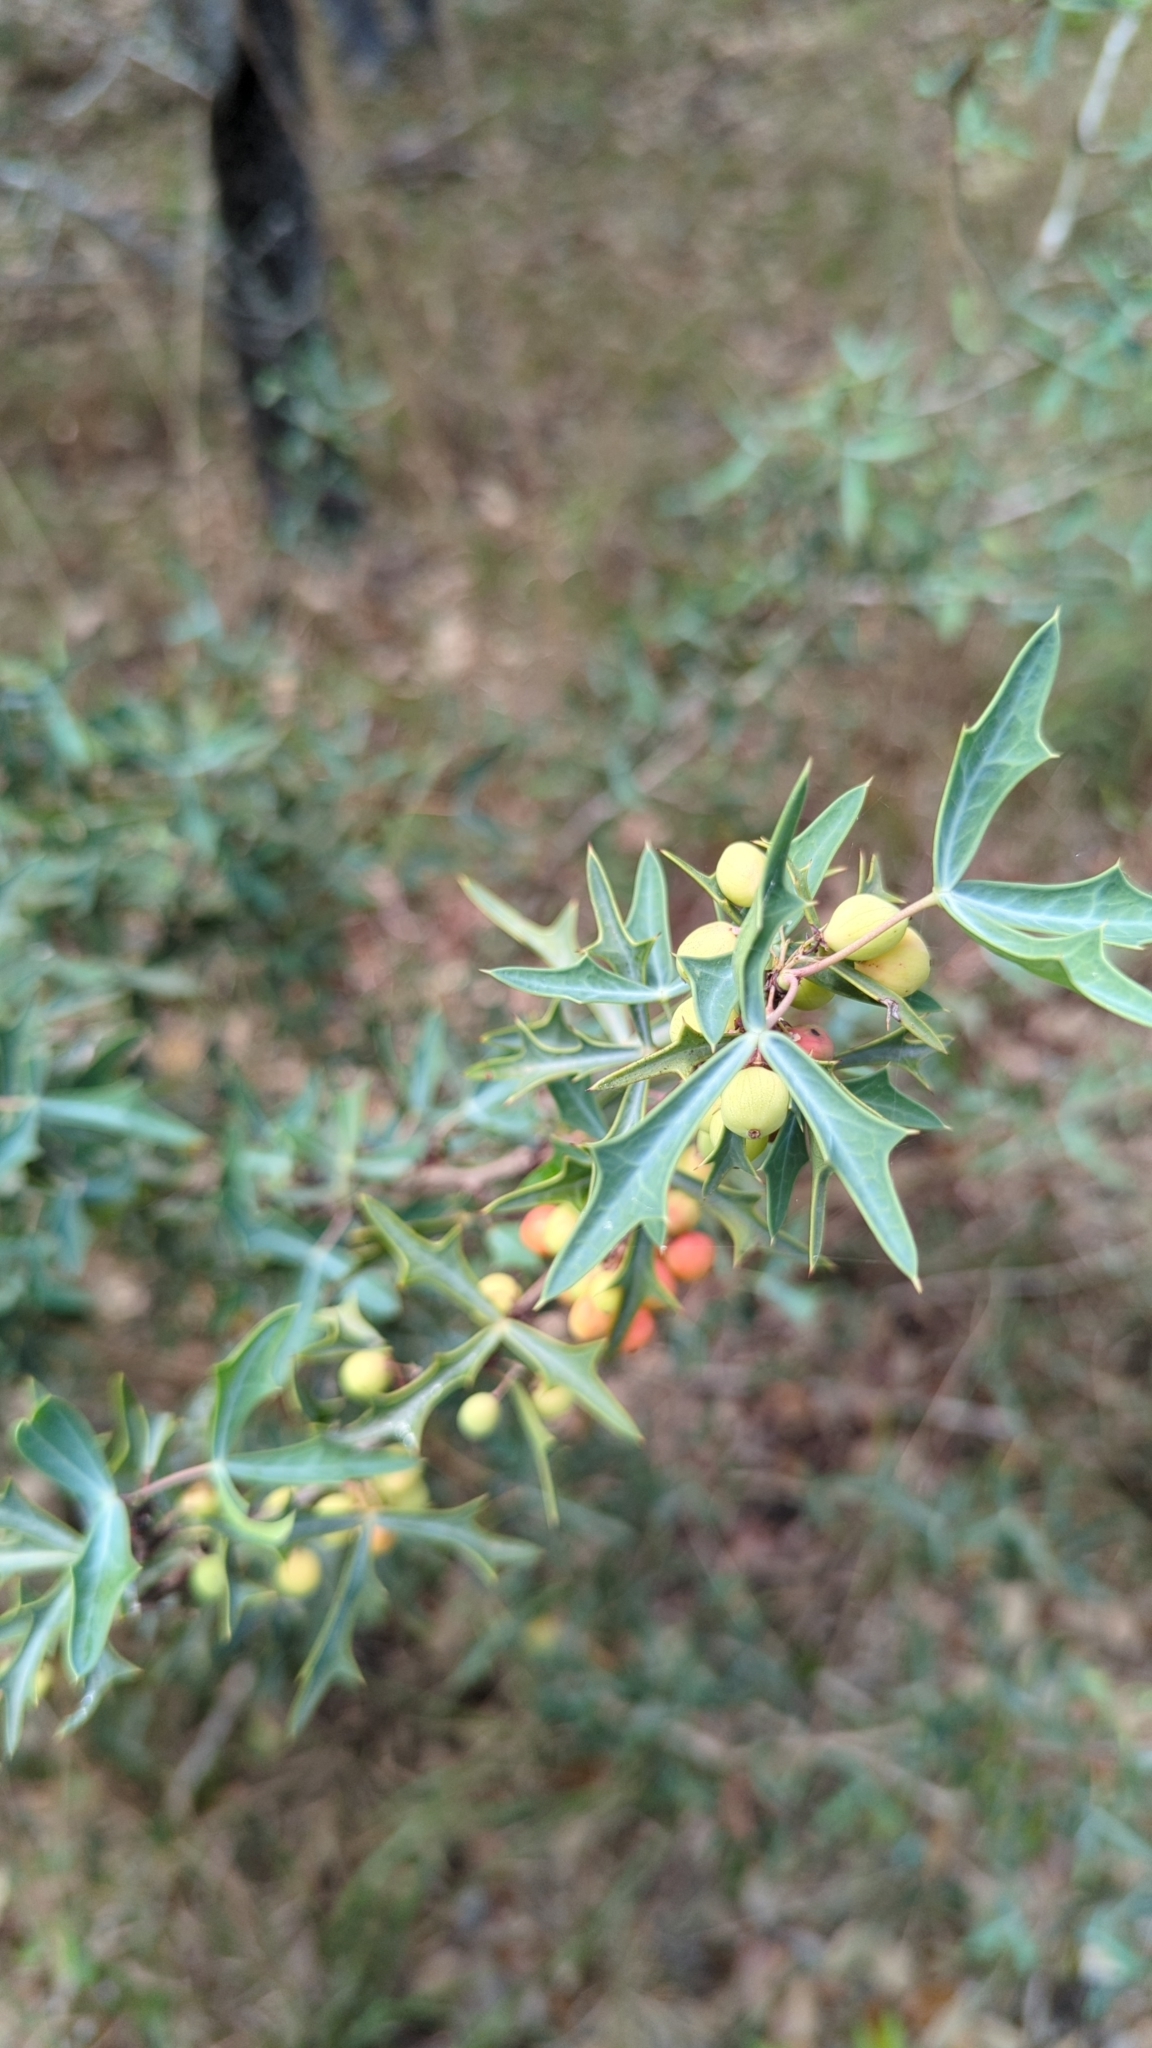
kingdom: Plantae
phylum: Tracheophyta
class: Magnoliopsida
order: Ranunculales
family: Berberidaceae
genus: Alloberberis
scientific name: Alloberberis trifoliolata
